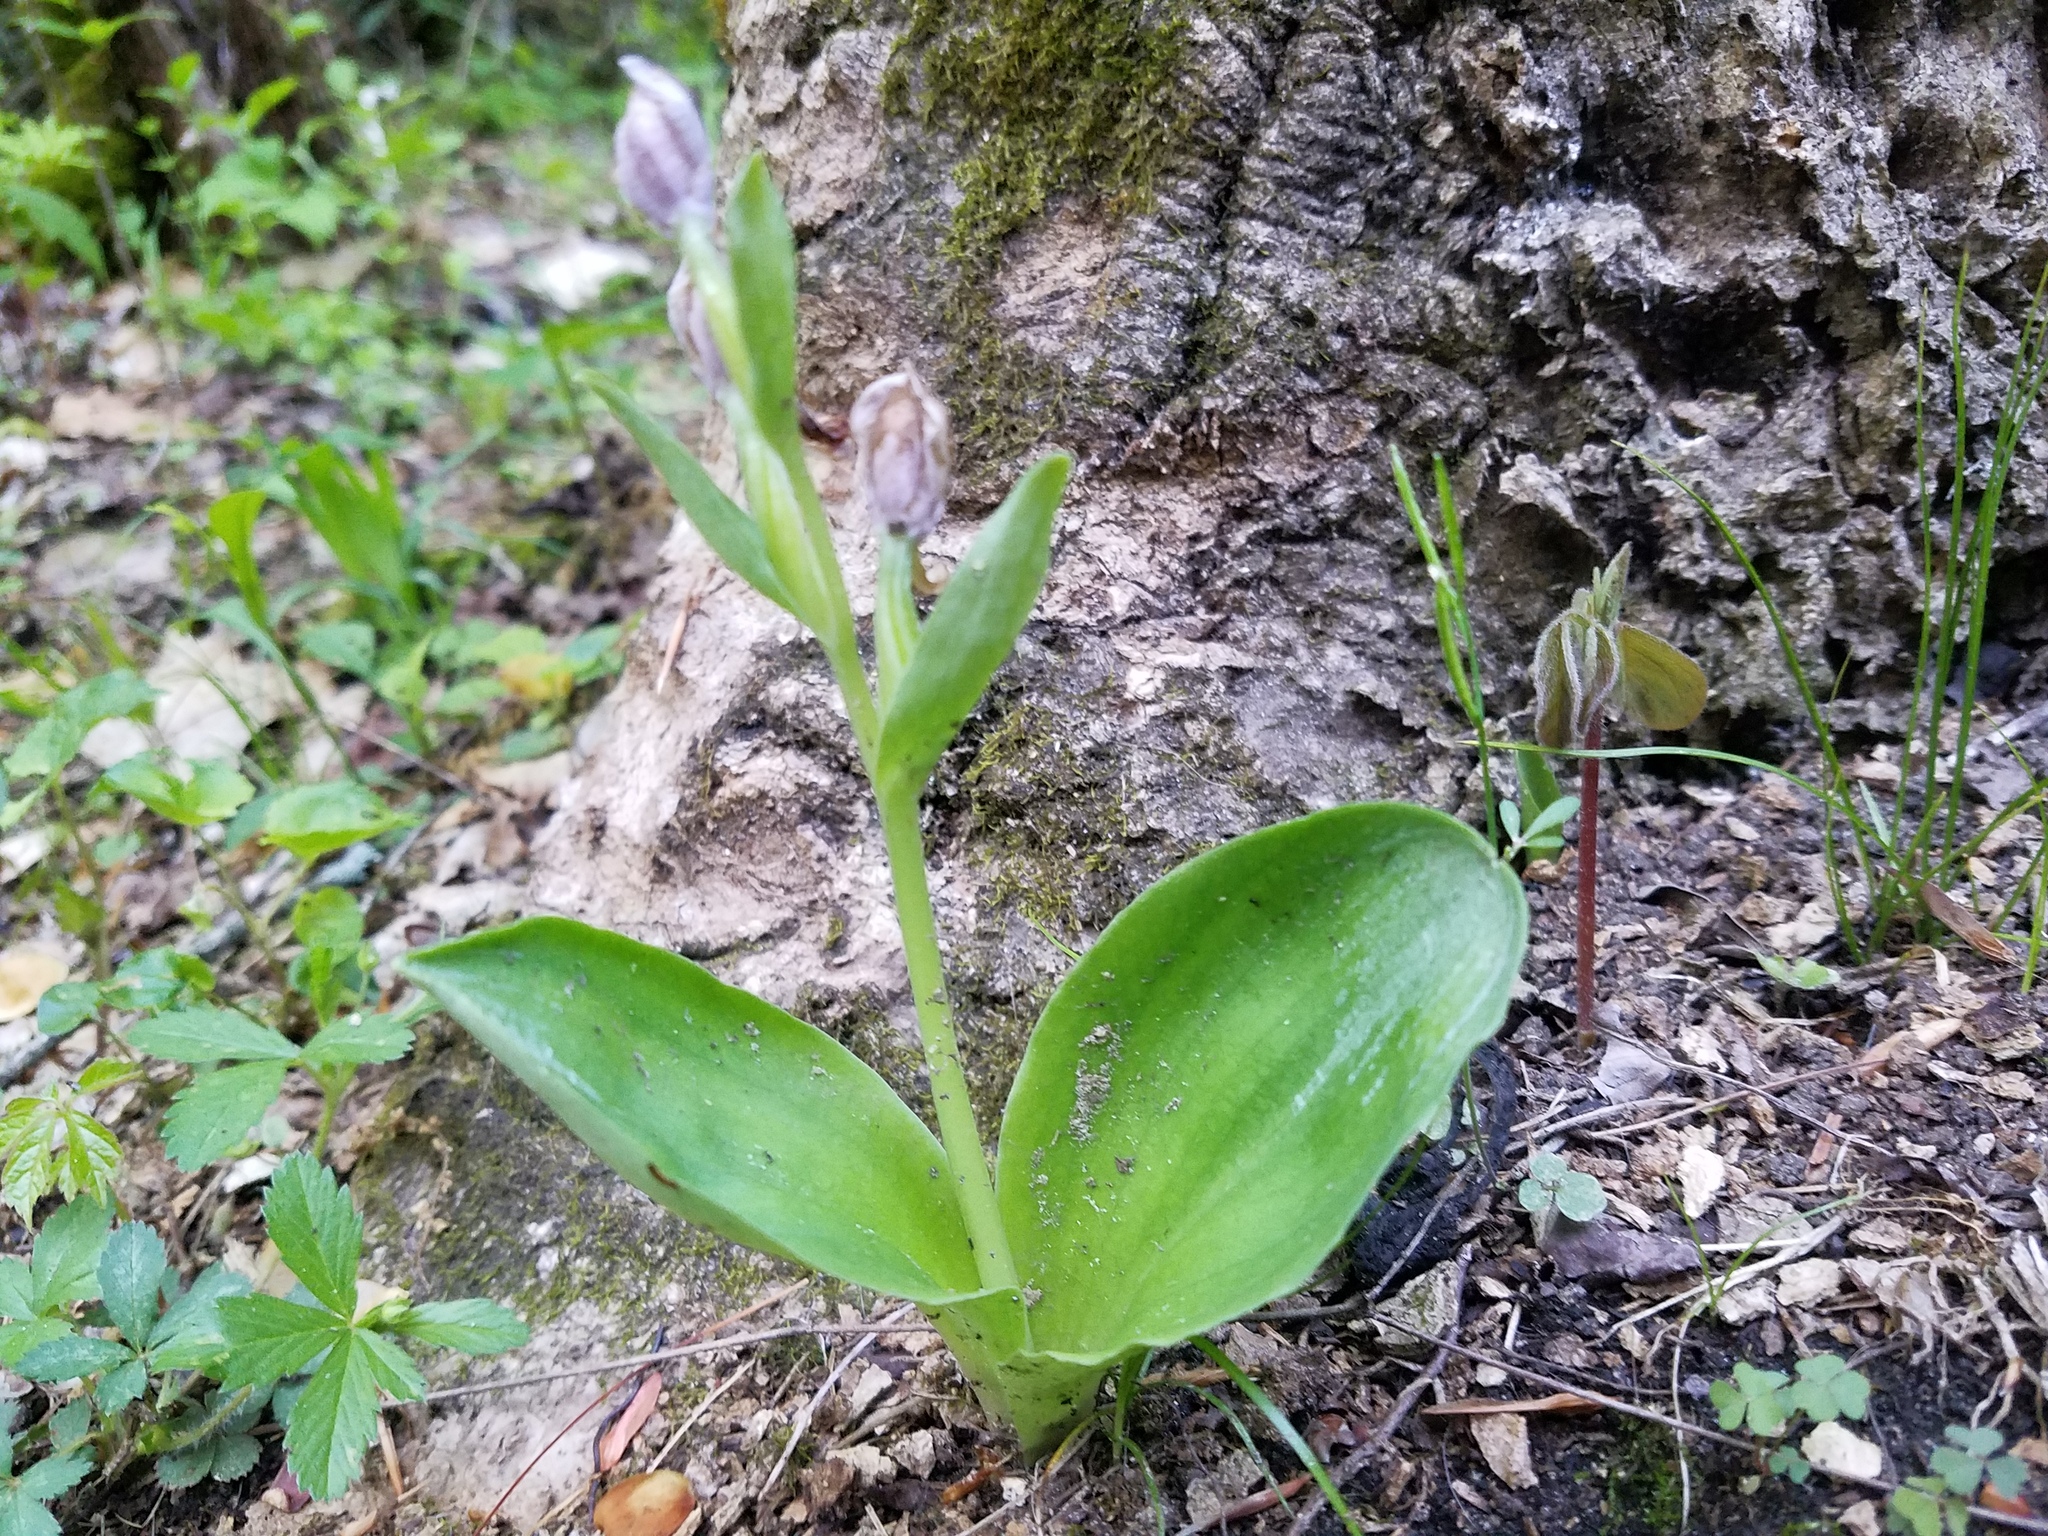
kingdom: Plantae
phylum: Tracheophyta
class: Liliopsida
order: Asparagales
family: Orchidaceae
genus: Galearis
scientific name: Galearis spectabilis
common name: Purple-hooded orchis
